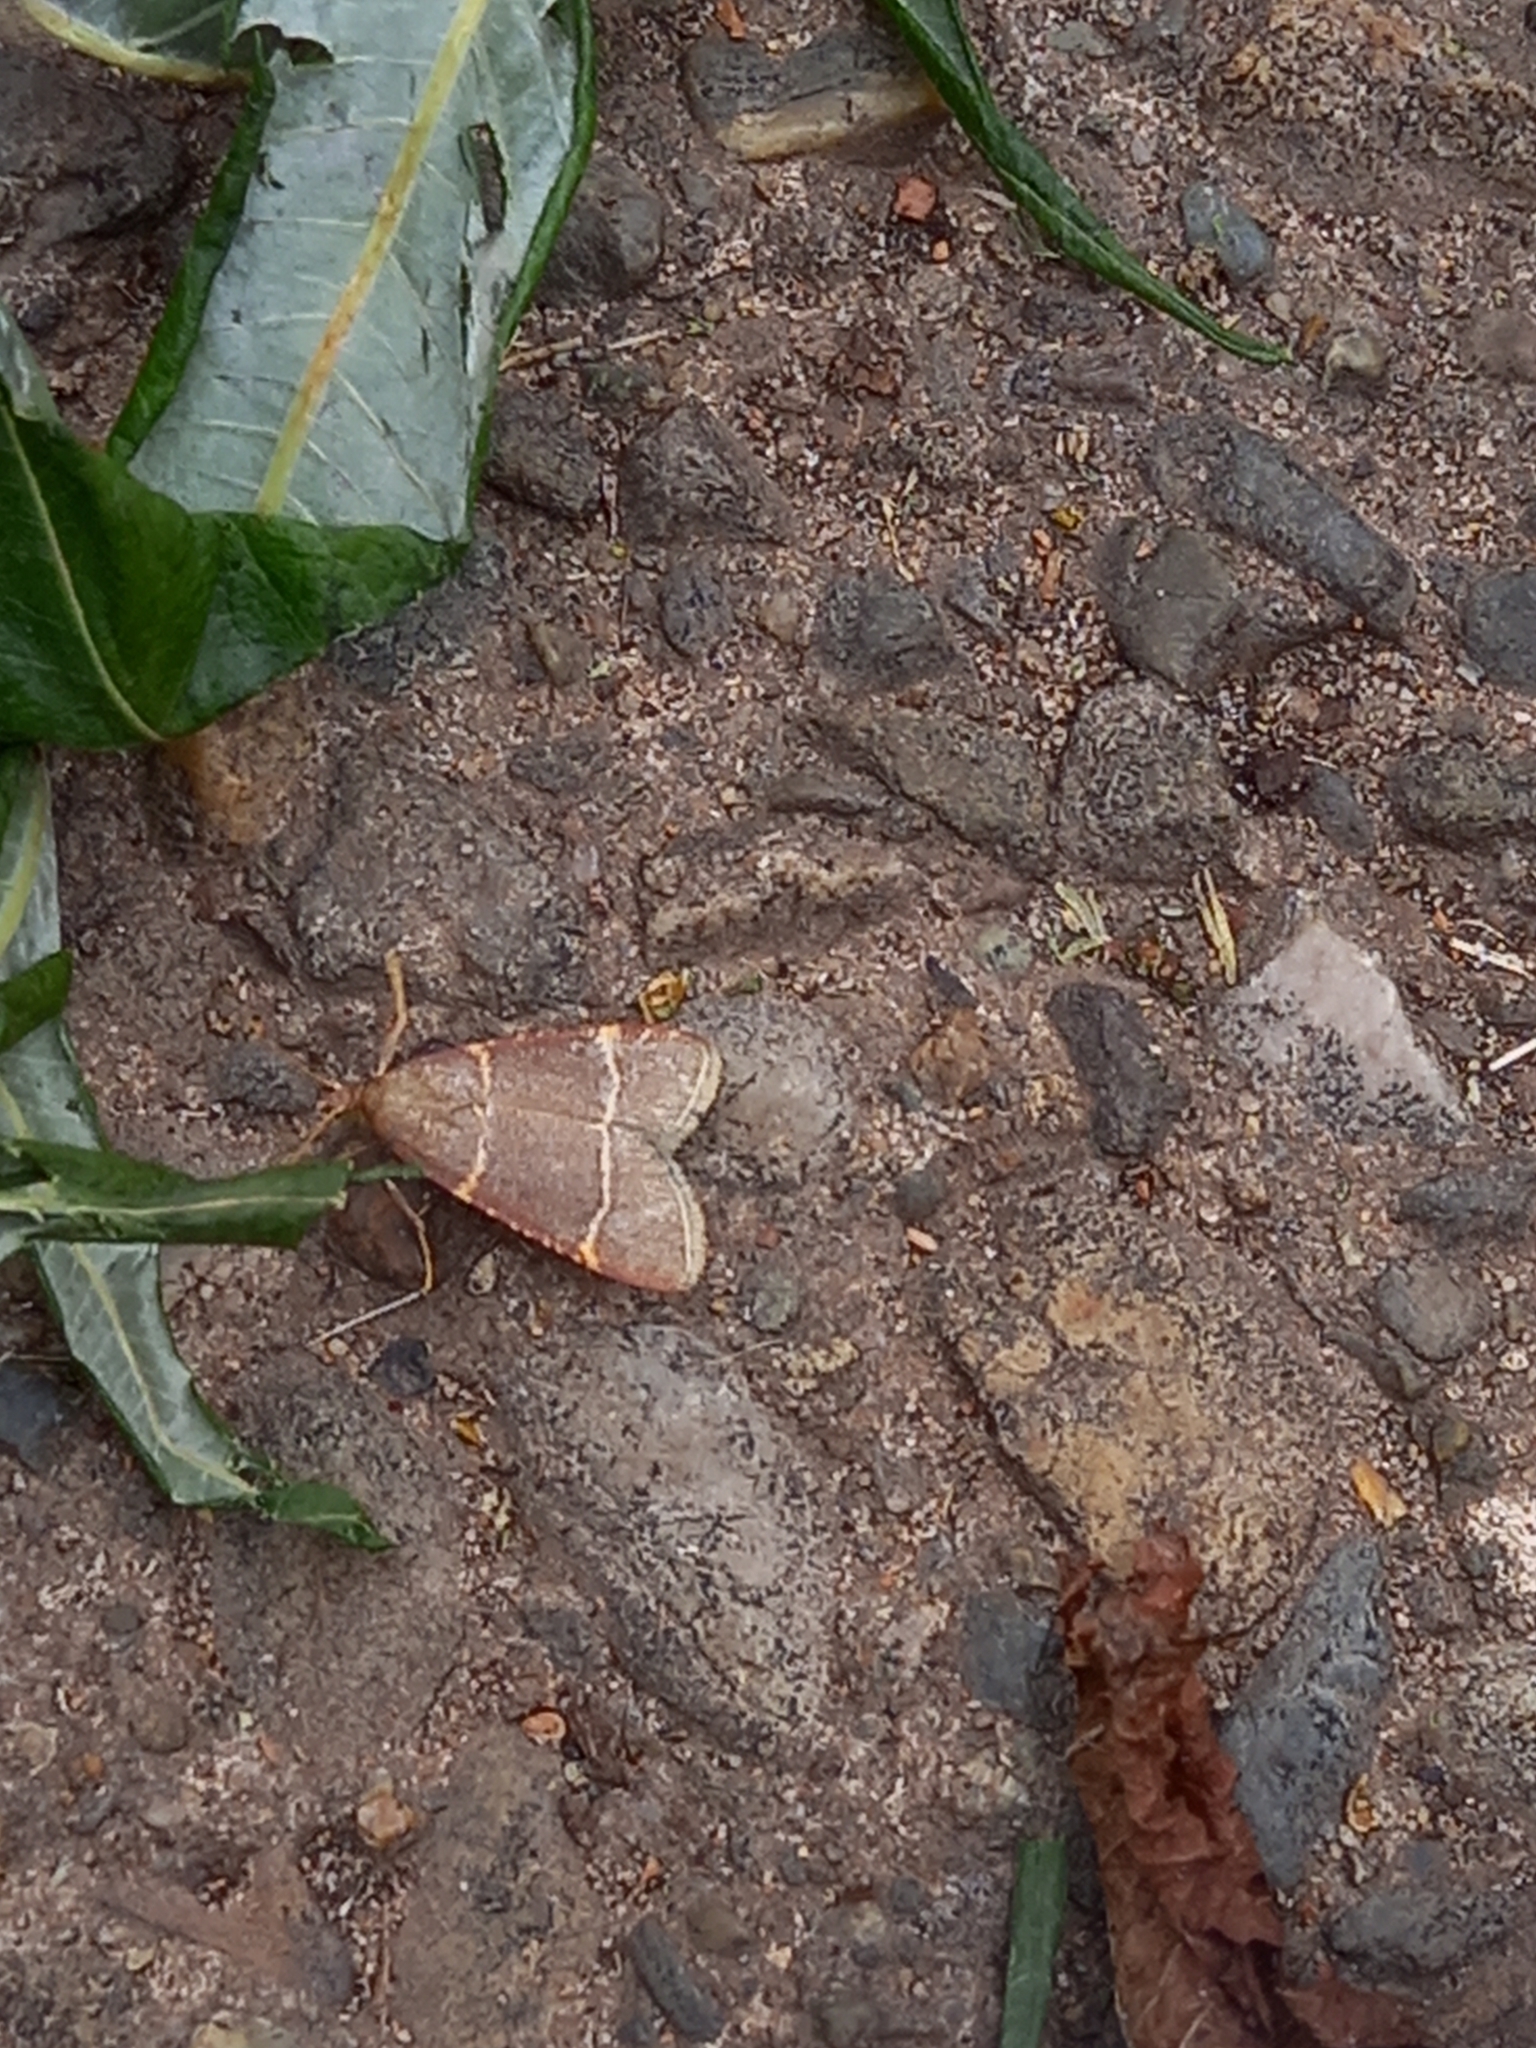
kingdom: Animalia
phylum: Arthropoda
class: Insecta
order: Lepidoptera
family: Pyralidae
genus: Hypsopygia
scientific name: Hypsopygia glaucinalis
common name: Double-striped tabby
